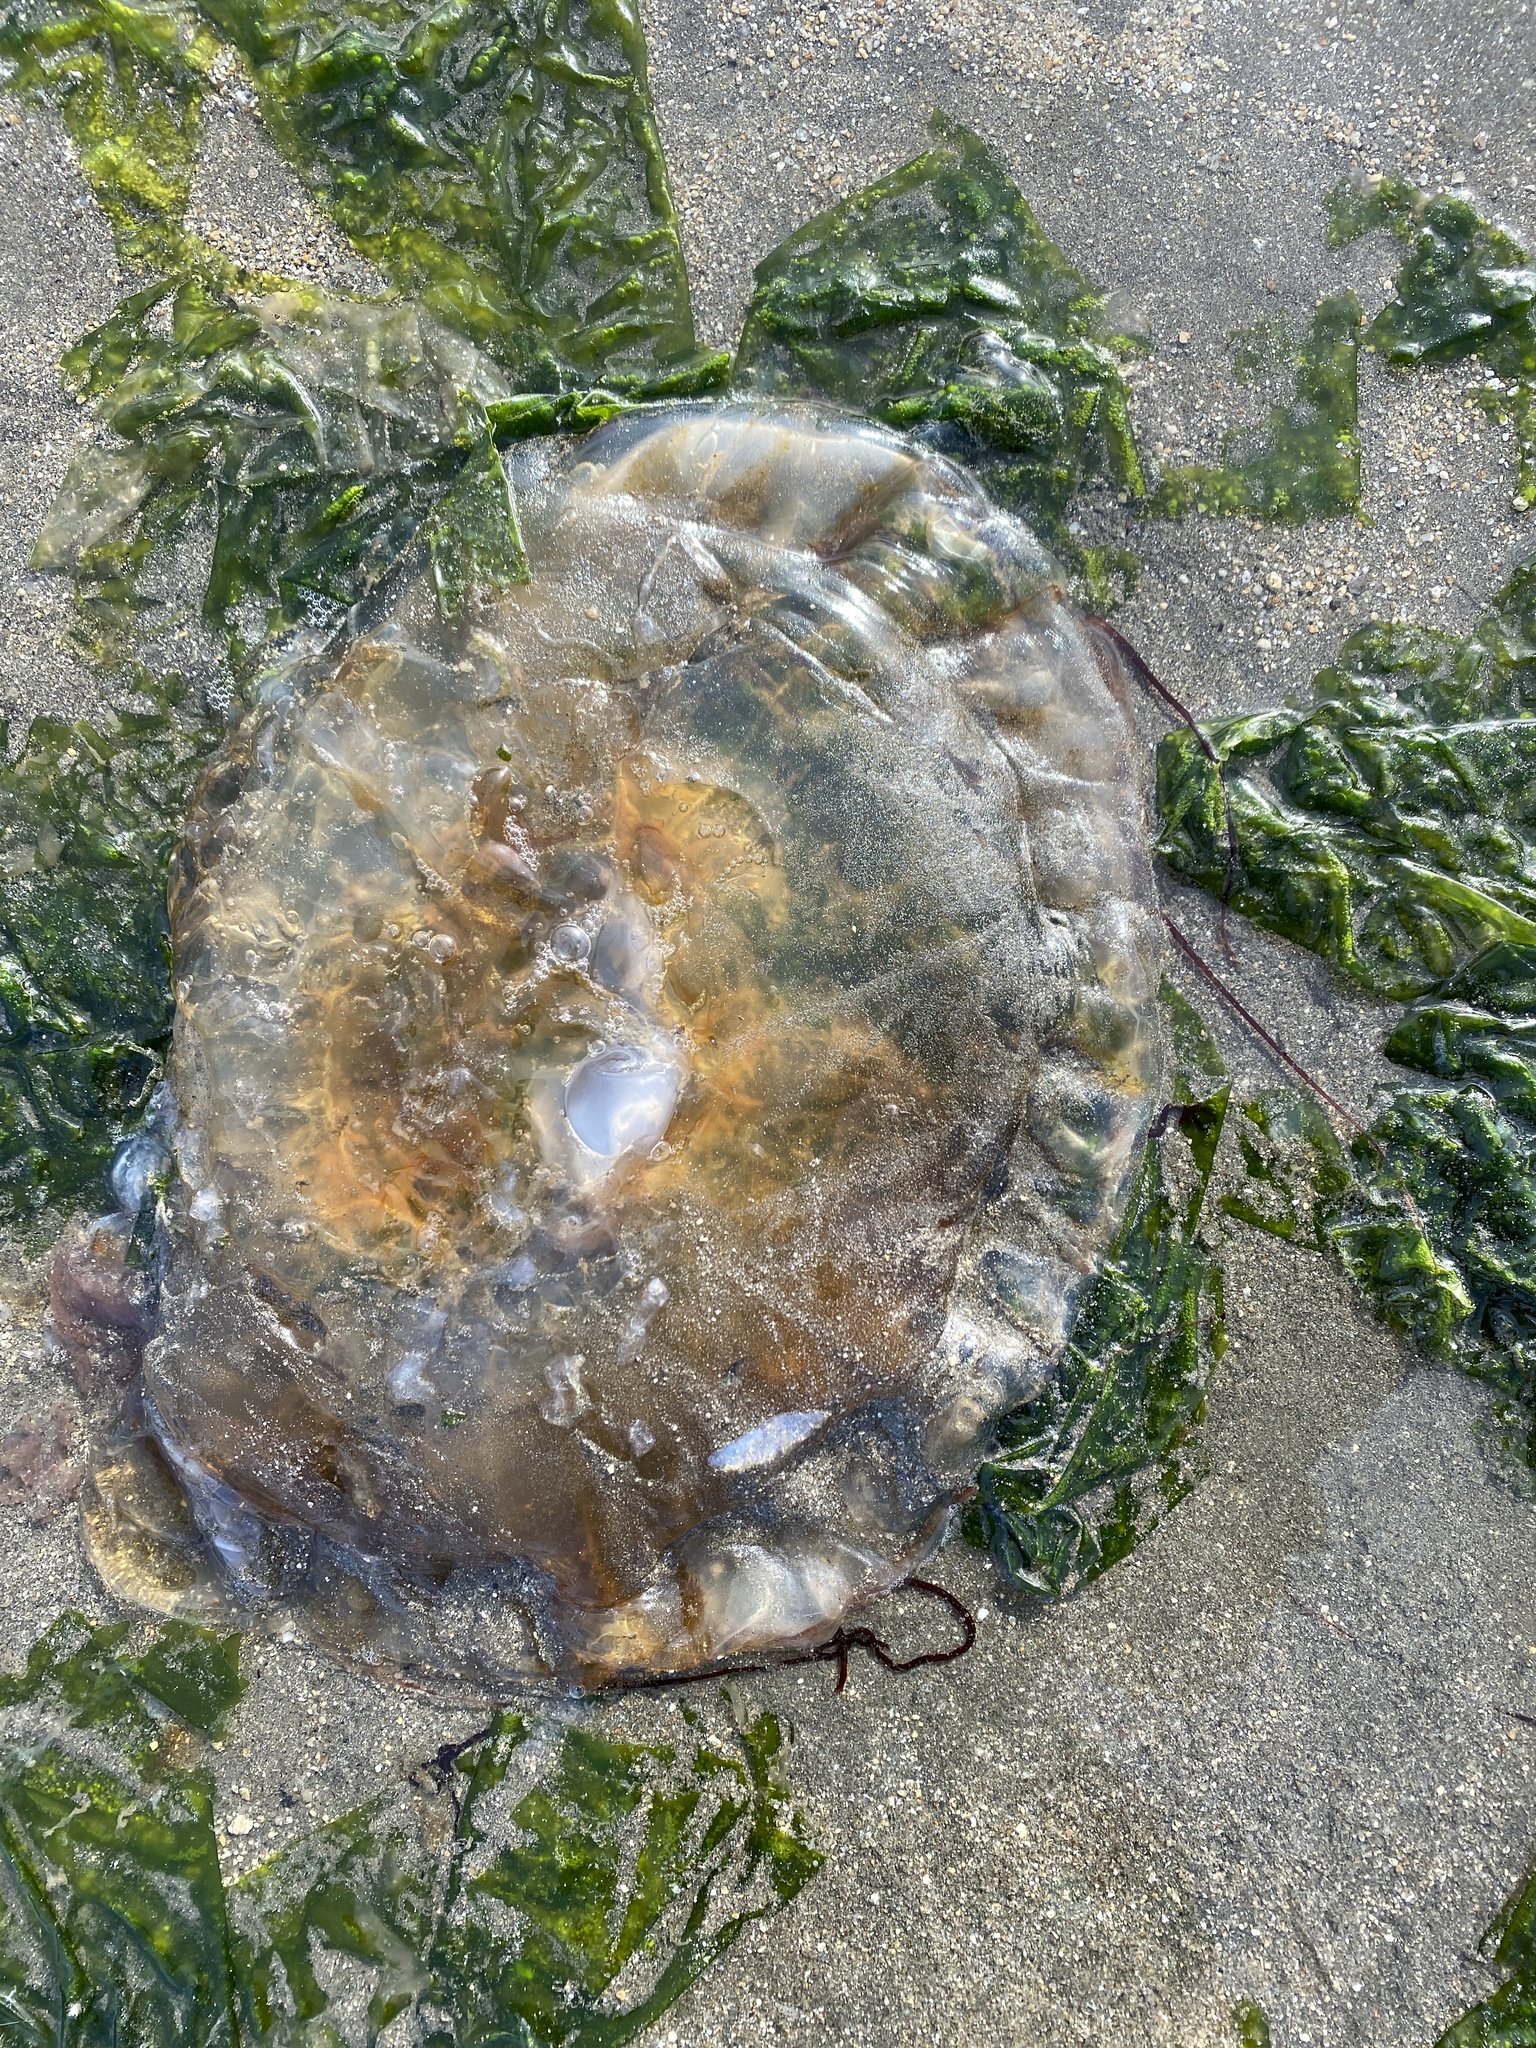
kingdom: Animalia
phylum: Cnidaria
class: Scyphozoa
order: Semaeostomeae
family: Pelagiidae
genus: Chrysaora
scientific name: Chrysaora fuscescens
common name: Sea nettle
